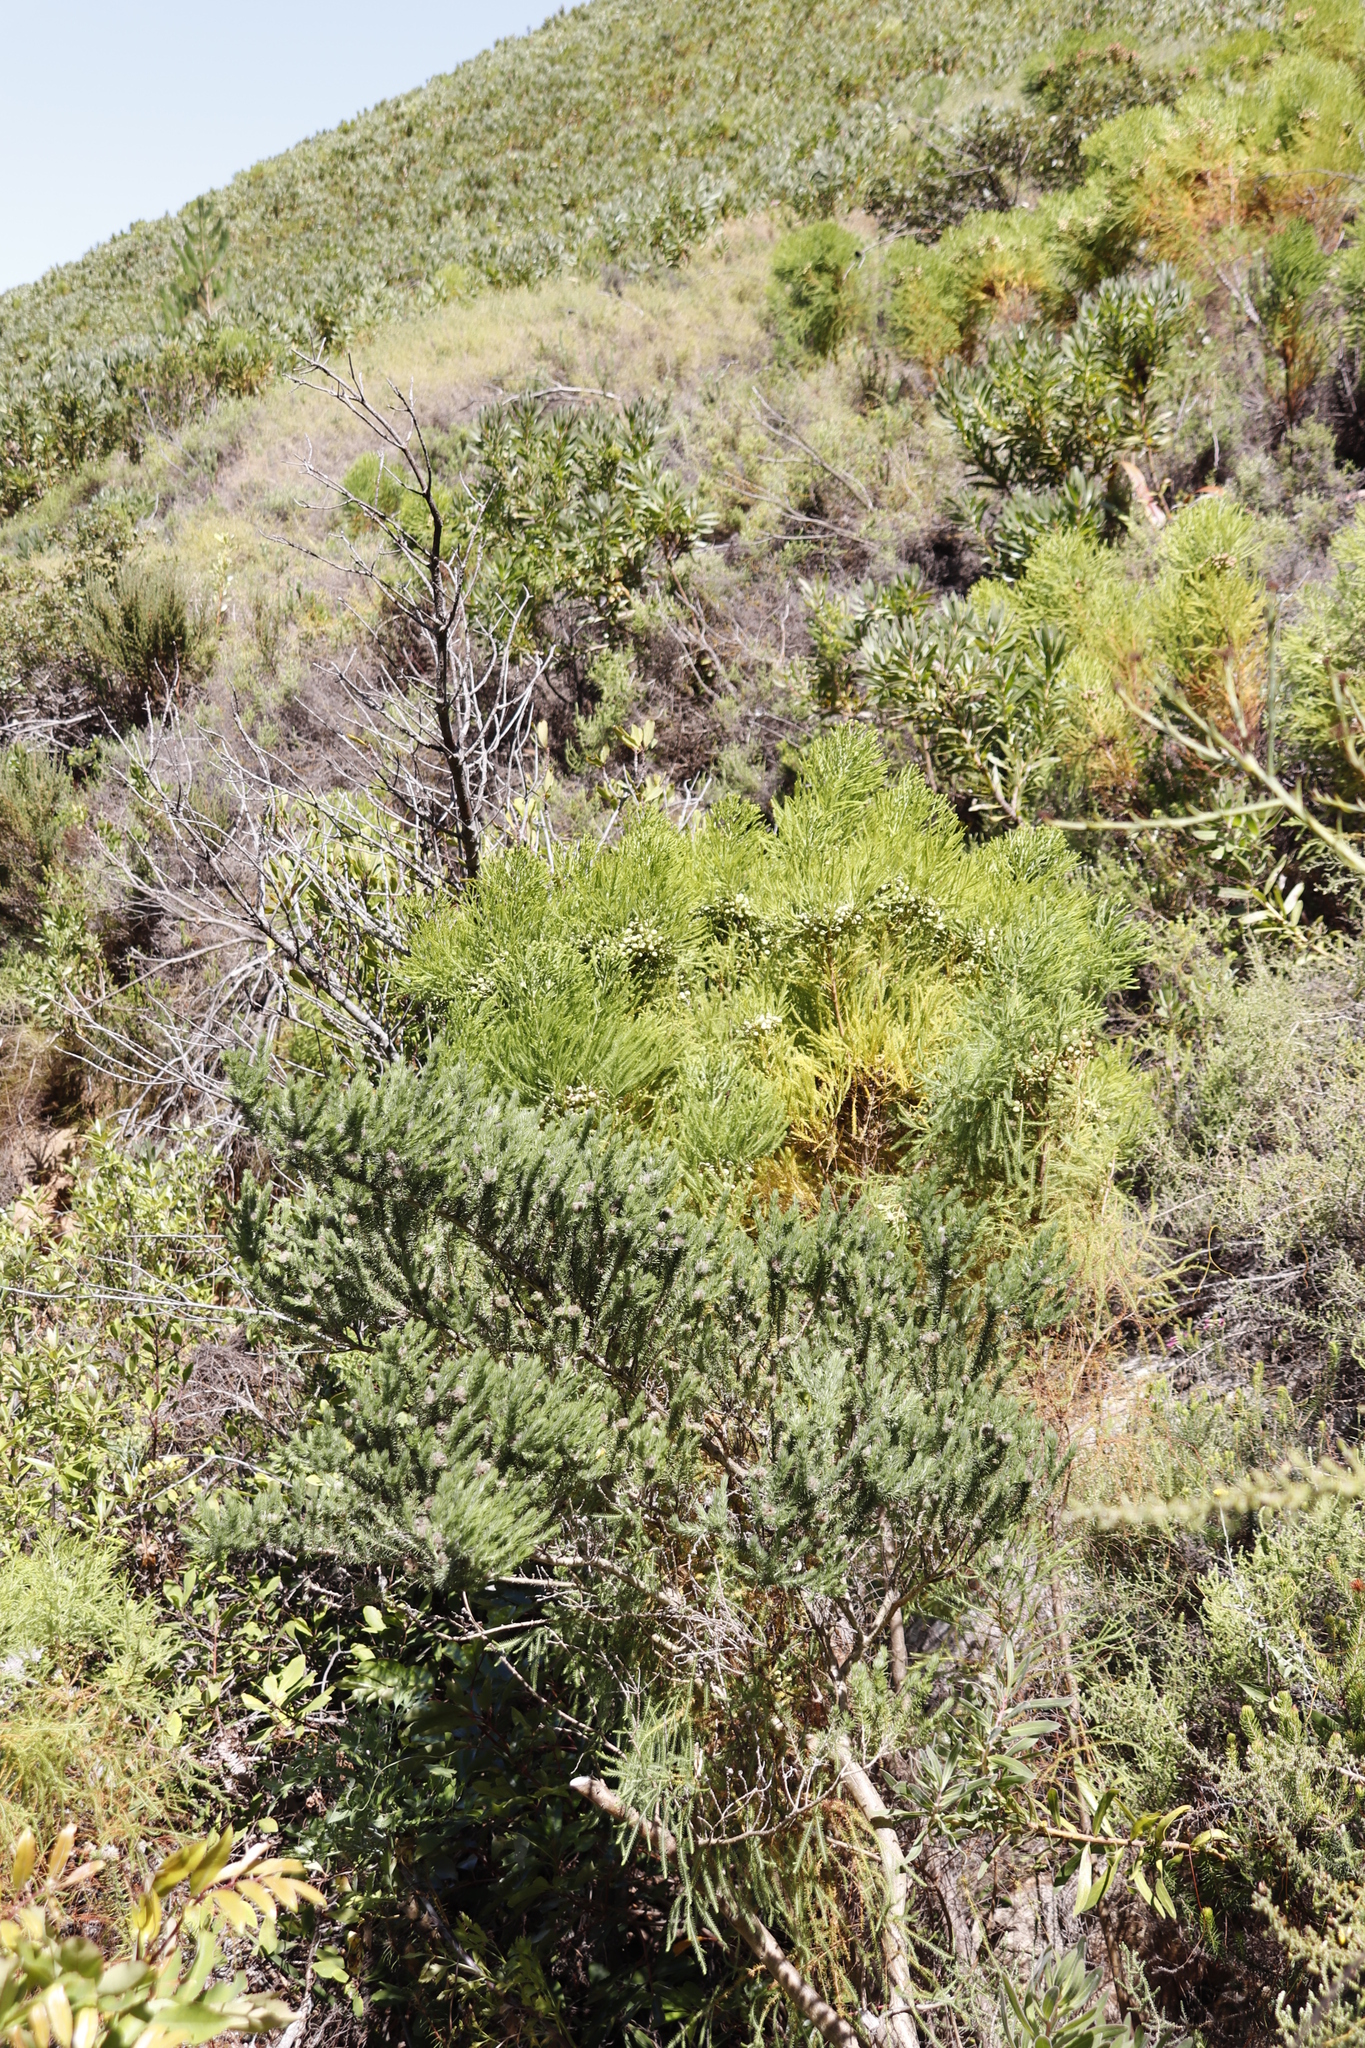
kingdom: Plantae
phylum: Tracheophyta
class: Magnoliopsida
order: Bruniales
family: Bruniaceae
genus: Berzelia
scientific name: Berzelia lanuginosa
